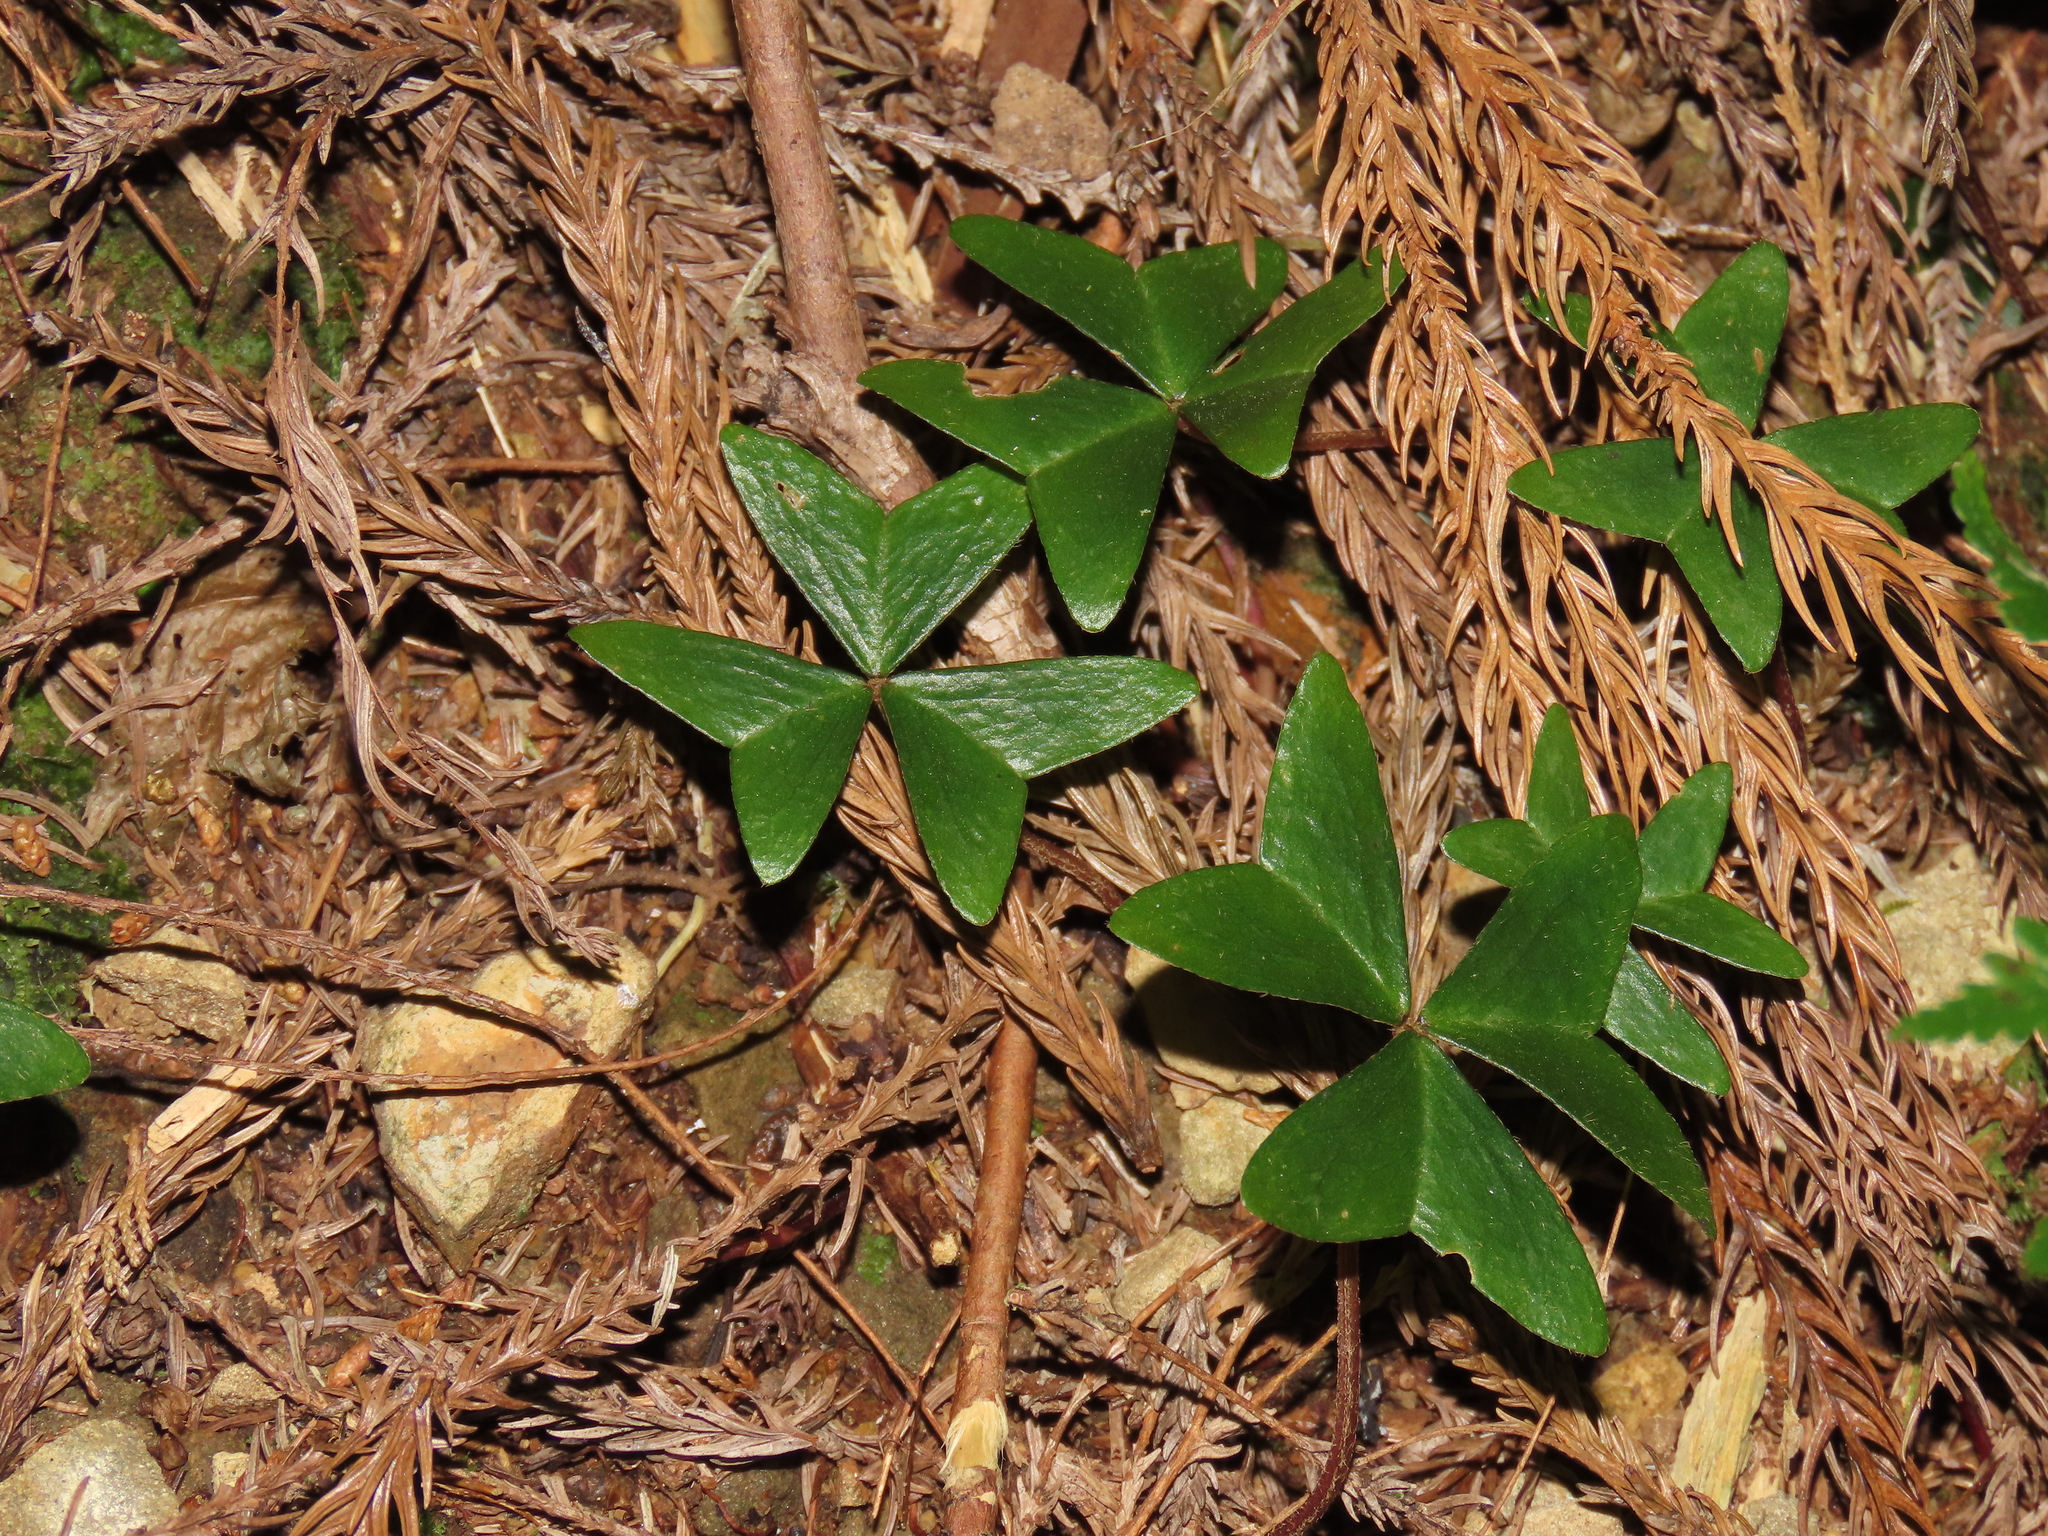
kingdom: Plantae
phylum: Tracheophyta
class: Magnoliopsida
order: Oxalidales
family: Oxalidaceae
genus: Oxalis
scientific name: Oxalis griffithii
